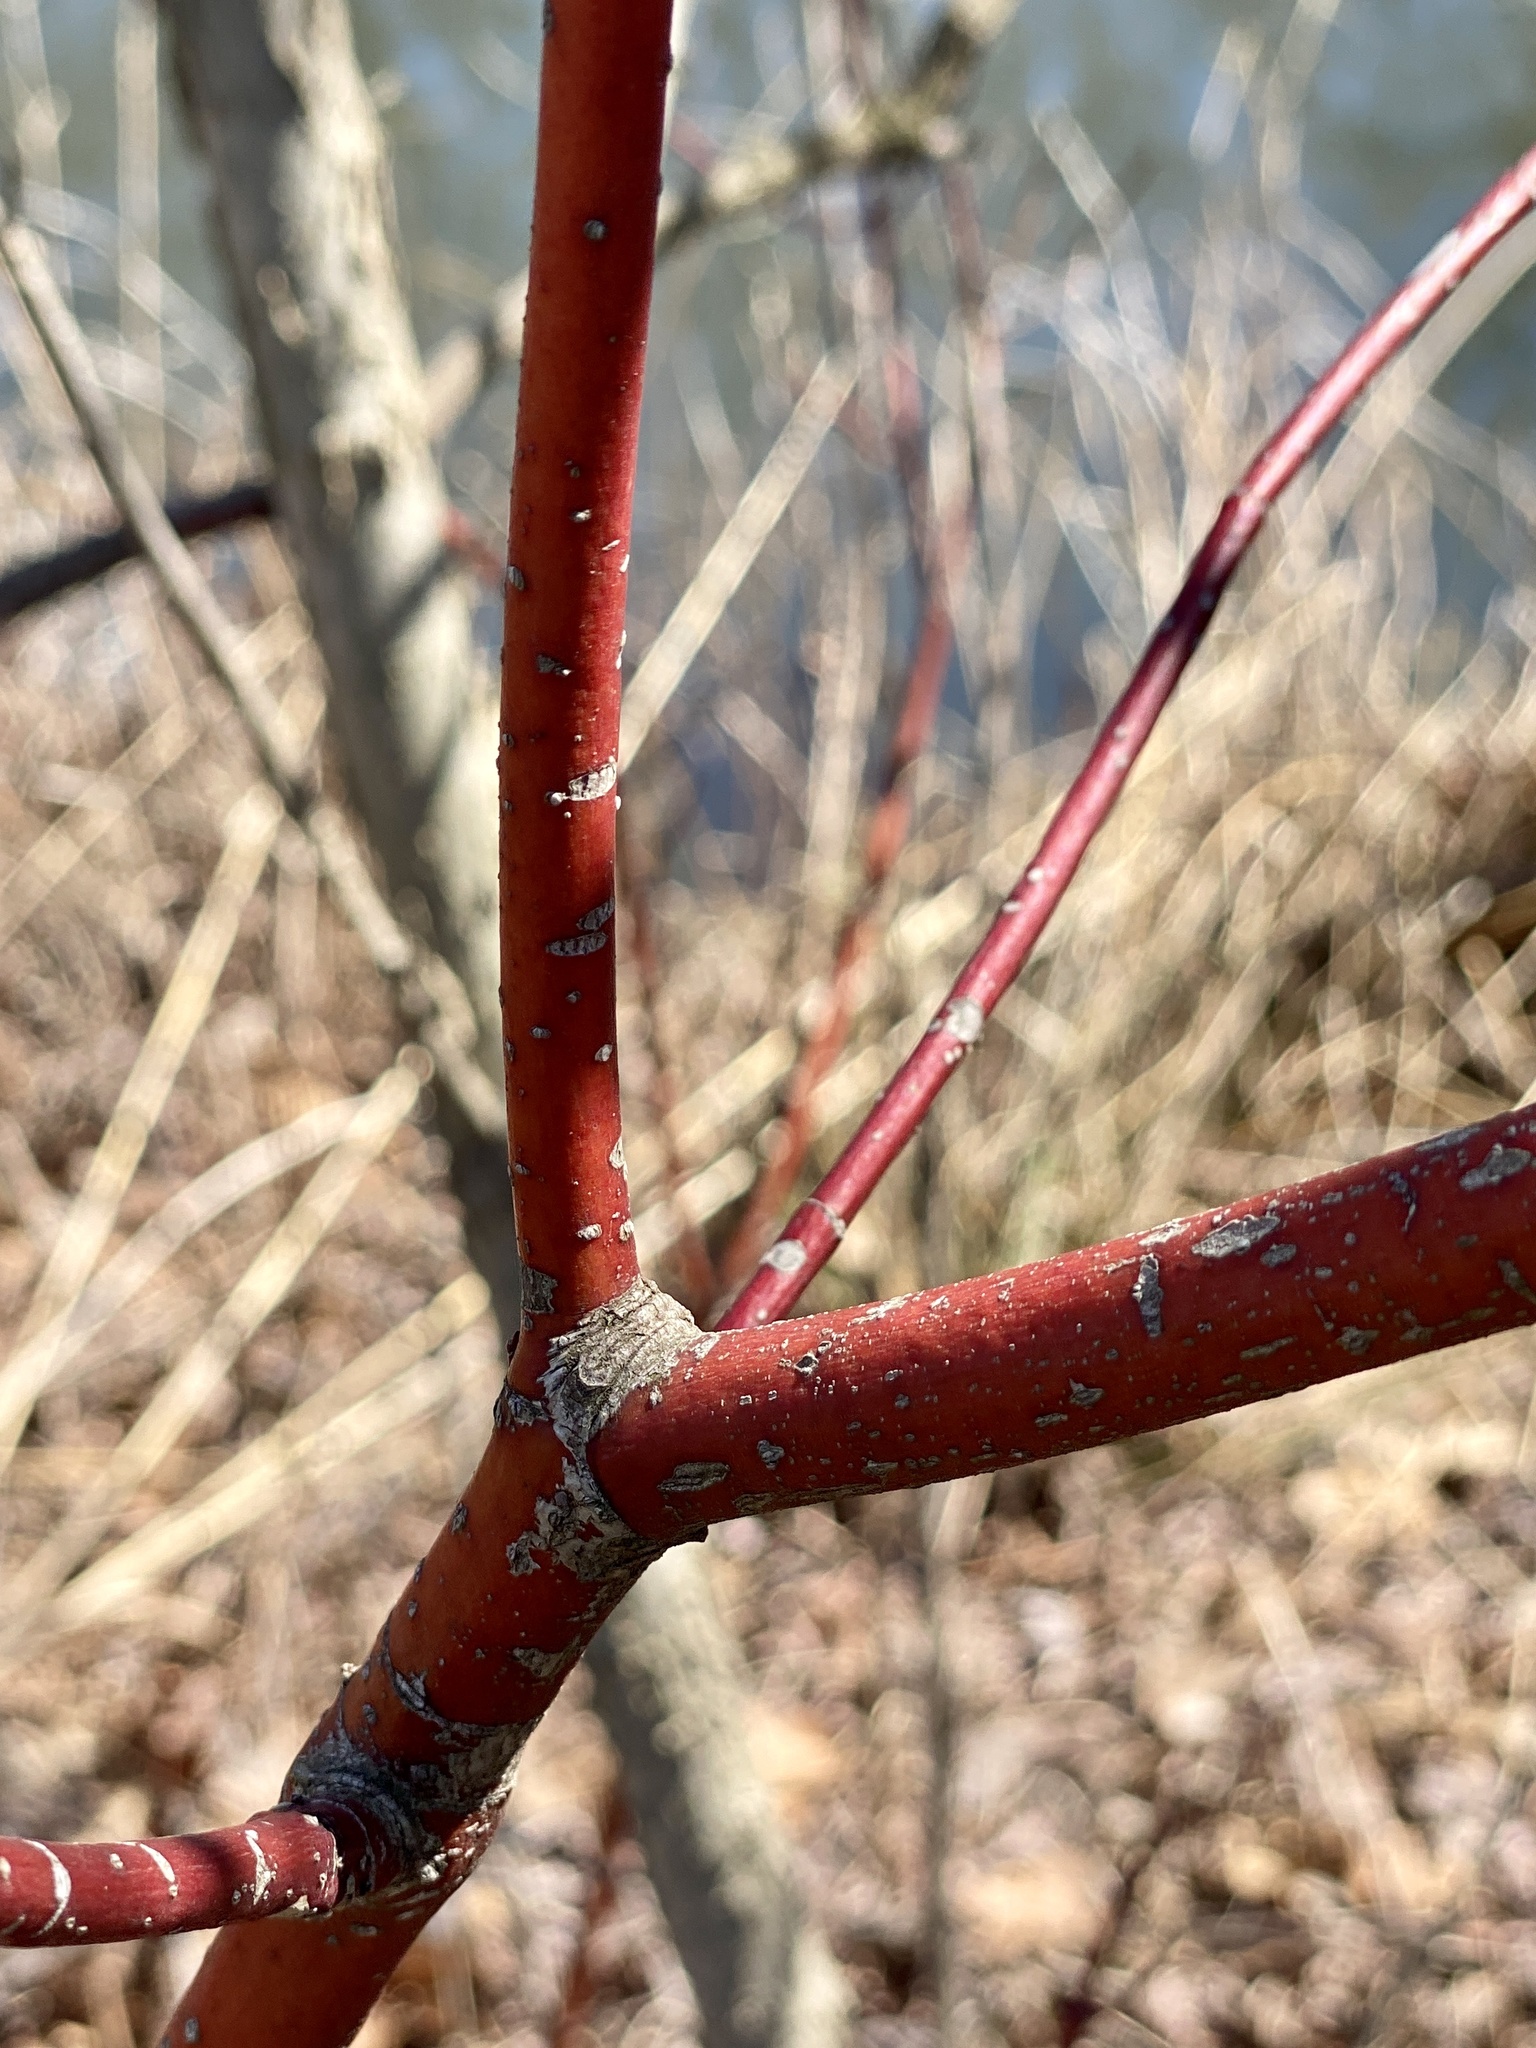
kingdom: Plantae
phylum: Tracheophyta
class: Magnoliopsida
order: Cornales
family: Cornaceae
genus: Cornus
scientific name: Cornus amomum
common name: Silky dogwood
